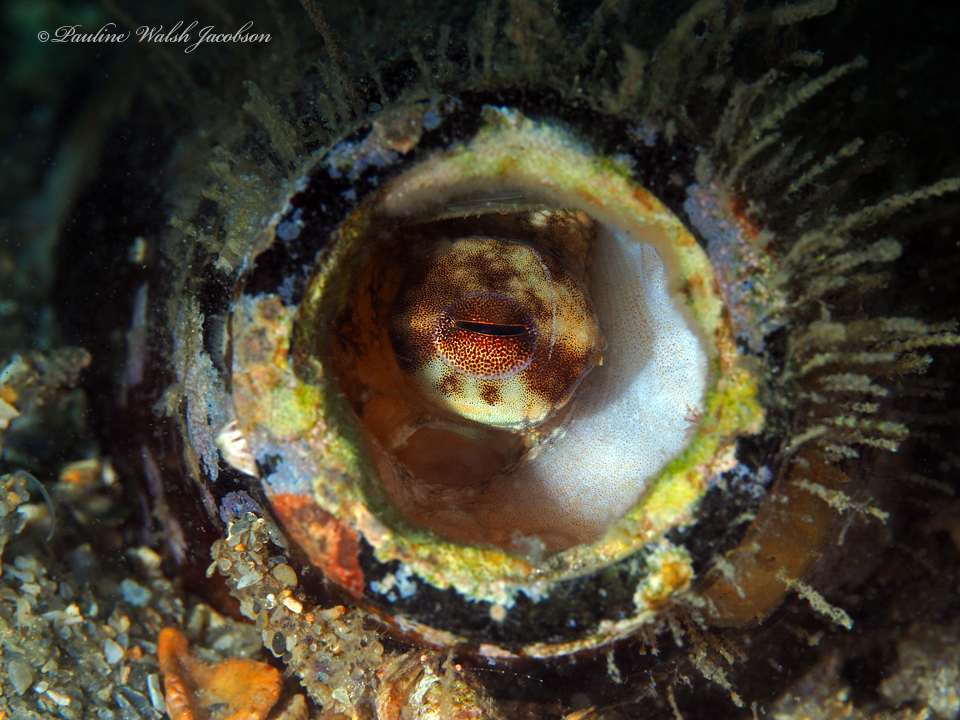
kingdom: Animalia
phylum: Mollusca
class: Cephalopoda
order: Octopoda
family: Octopodidae
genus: Octopus
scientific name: Octopus americanus
